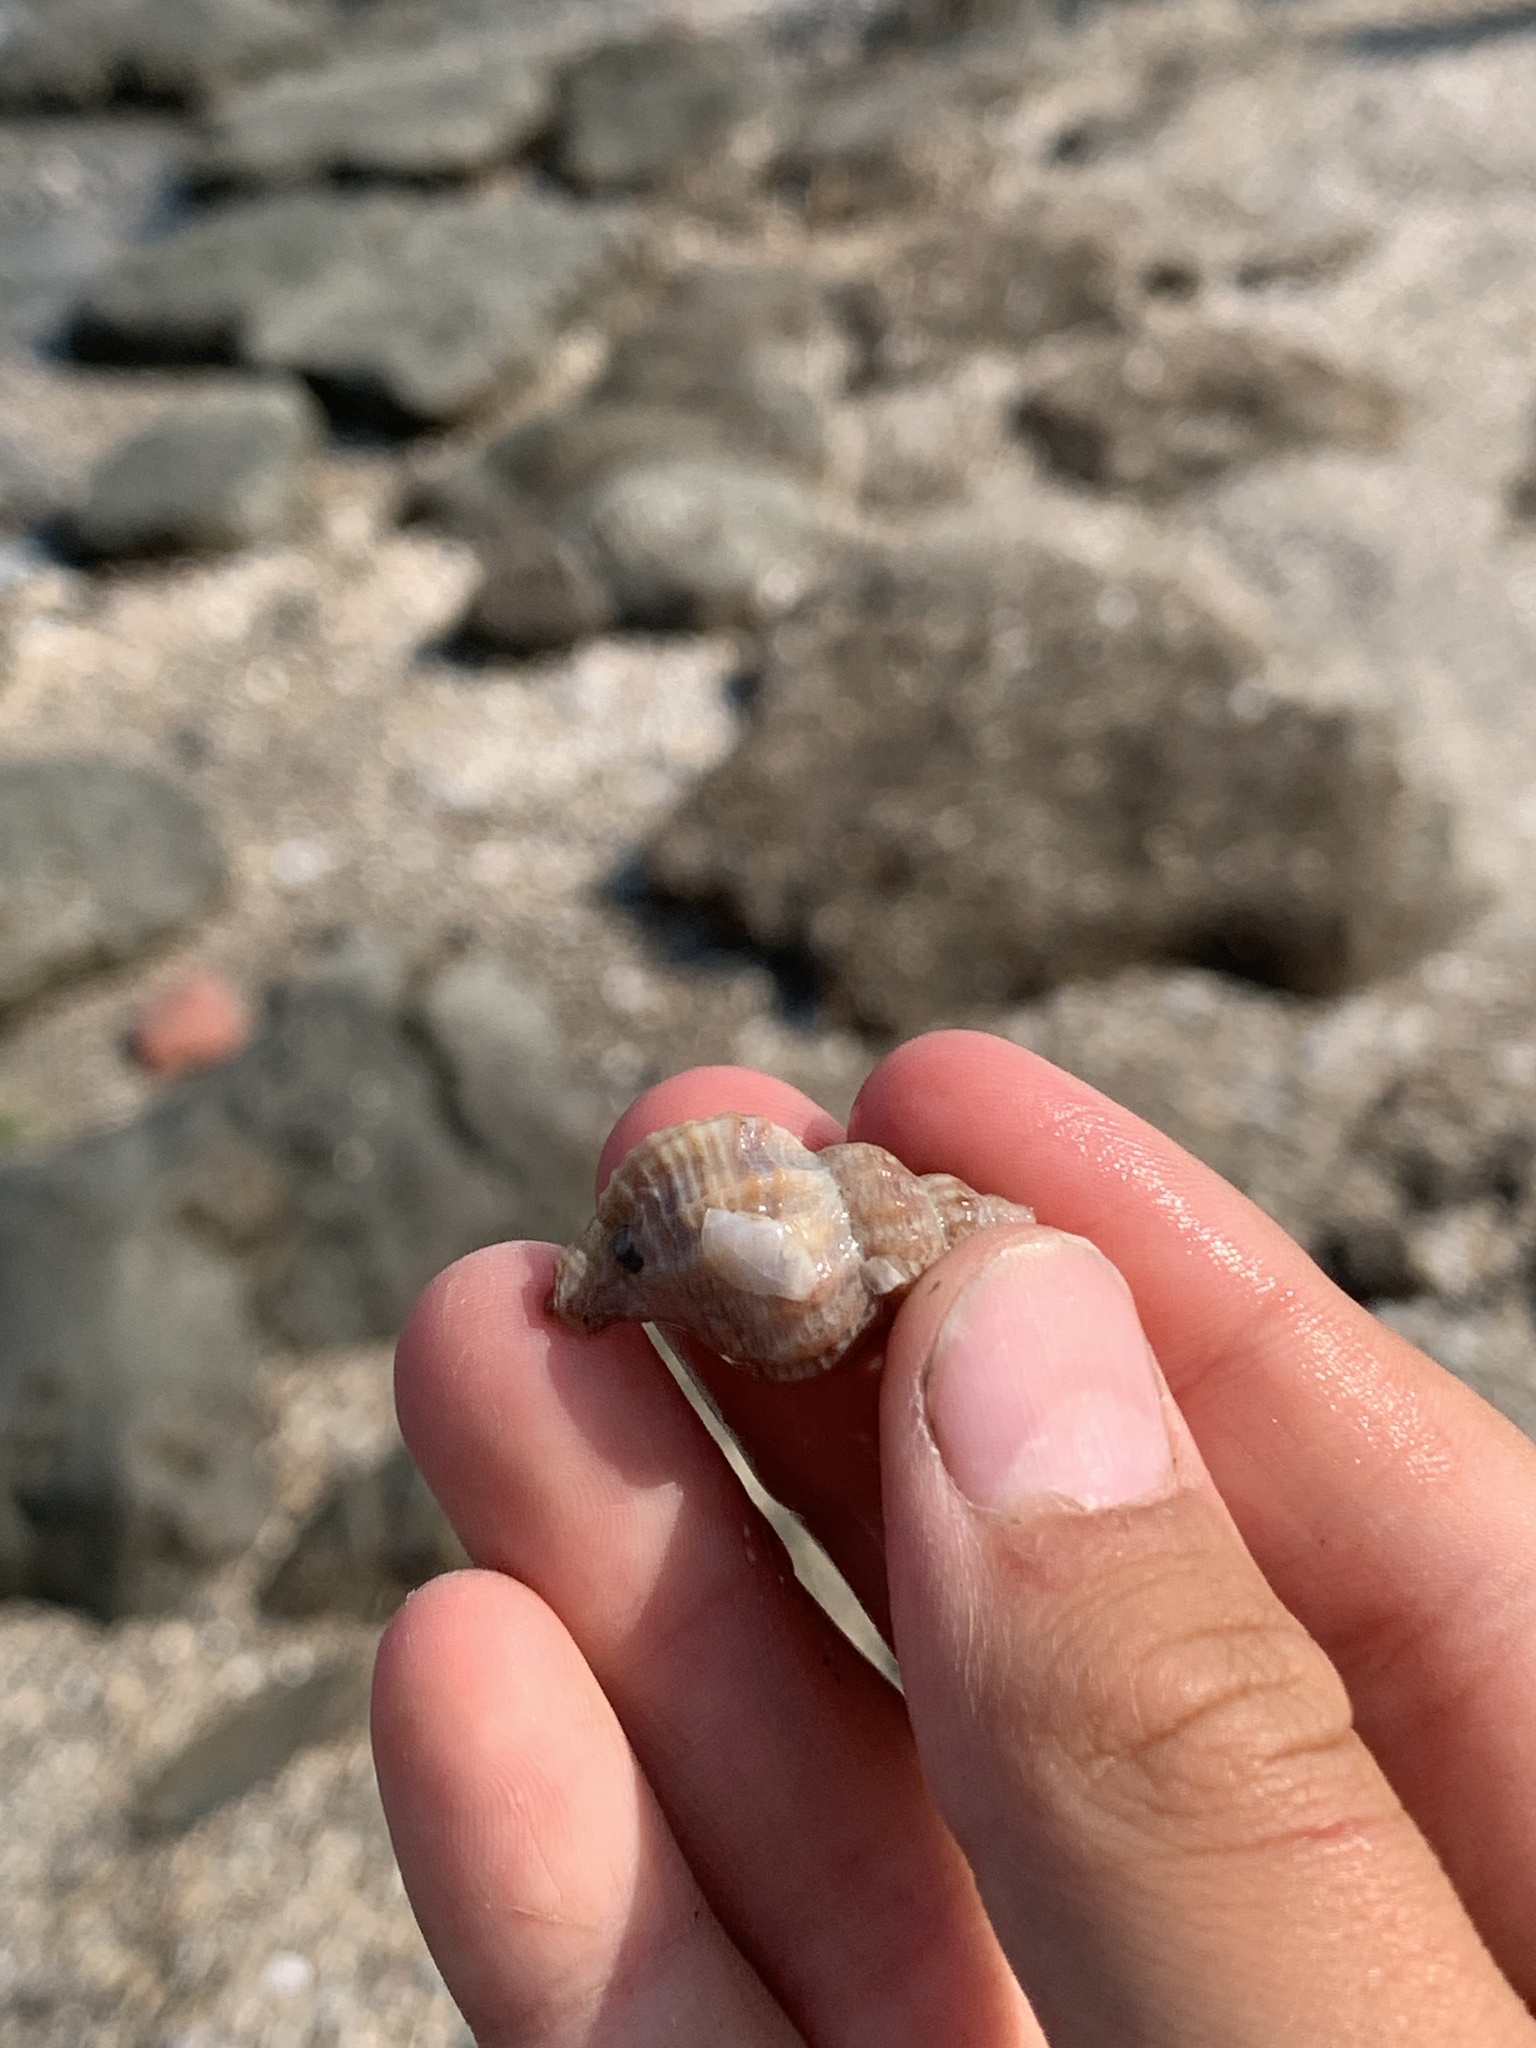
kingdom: Animalia
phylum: Mollusca
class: Gastropoda
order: Neogastropoda
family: Muricidae
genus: Urosalpinx
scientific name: Urosalpinx cinerea
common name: American sting winkle
